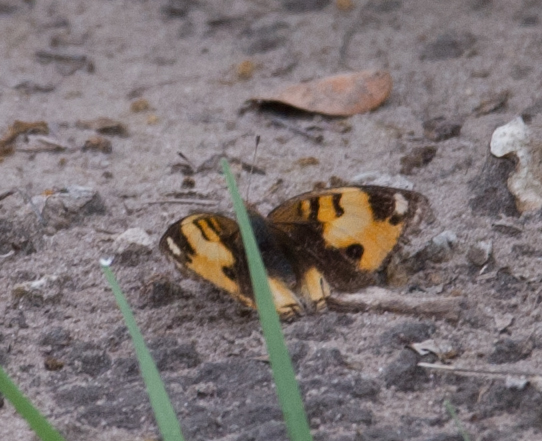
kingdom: Animalia
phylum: Arthropoda
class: Insecta
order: Lepidoptera
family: Nymphalidae
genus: Junonia
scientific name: Junonia hierta
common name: Yellow pansy
